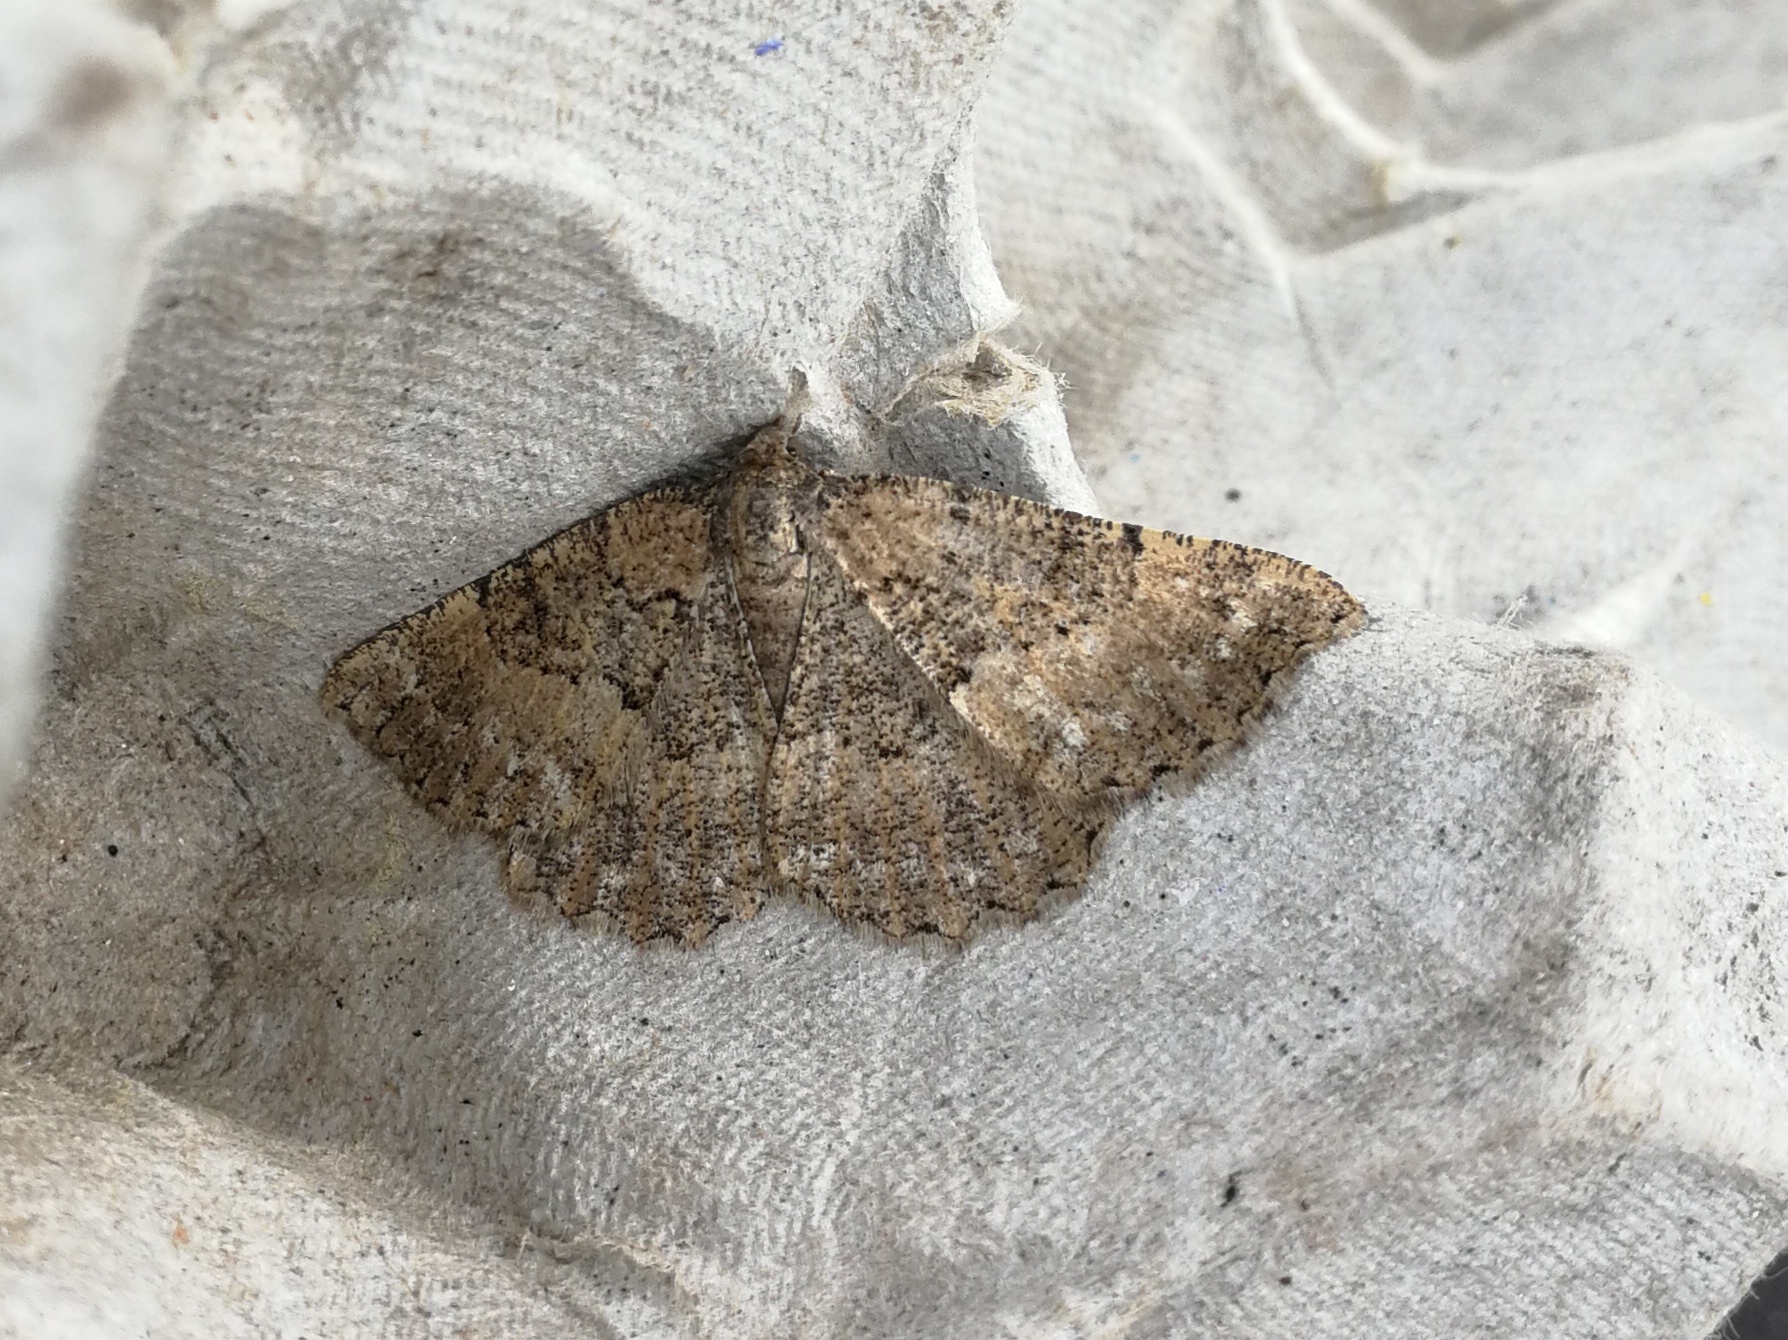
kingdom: Animalia
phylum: Arthropoda
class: Insecta
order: Lepidoptera
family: Geometridae
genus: Selidosema
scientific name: Selidosema taeniolaria
